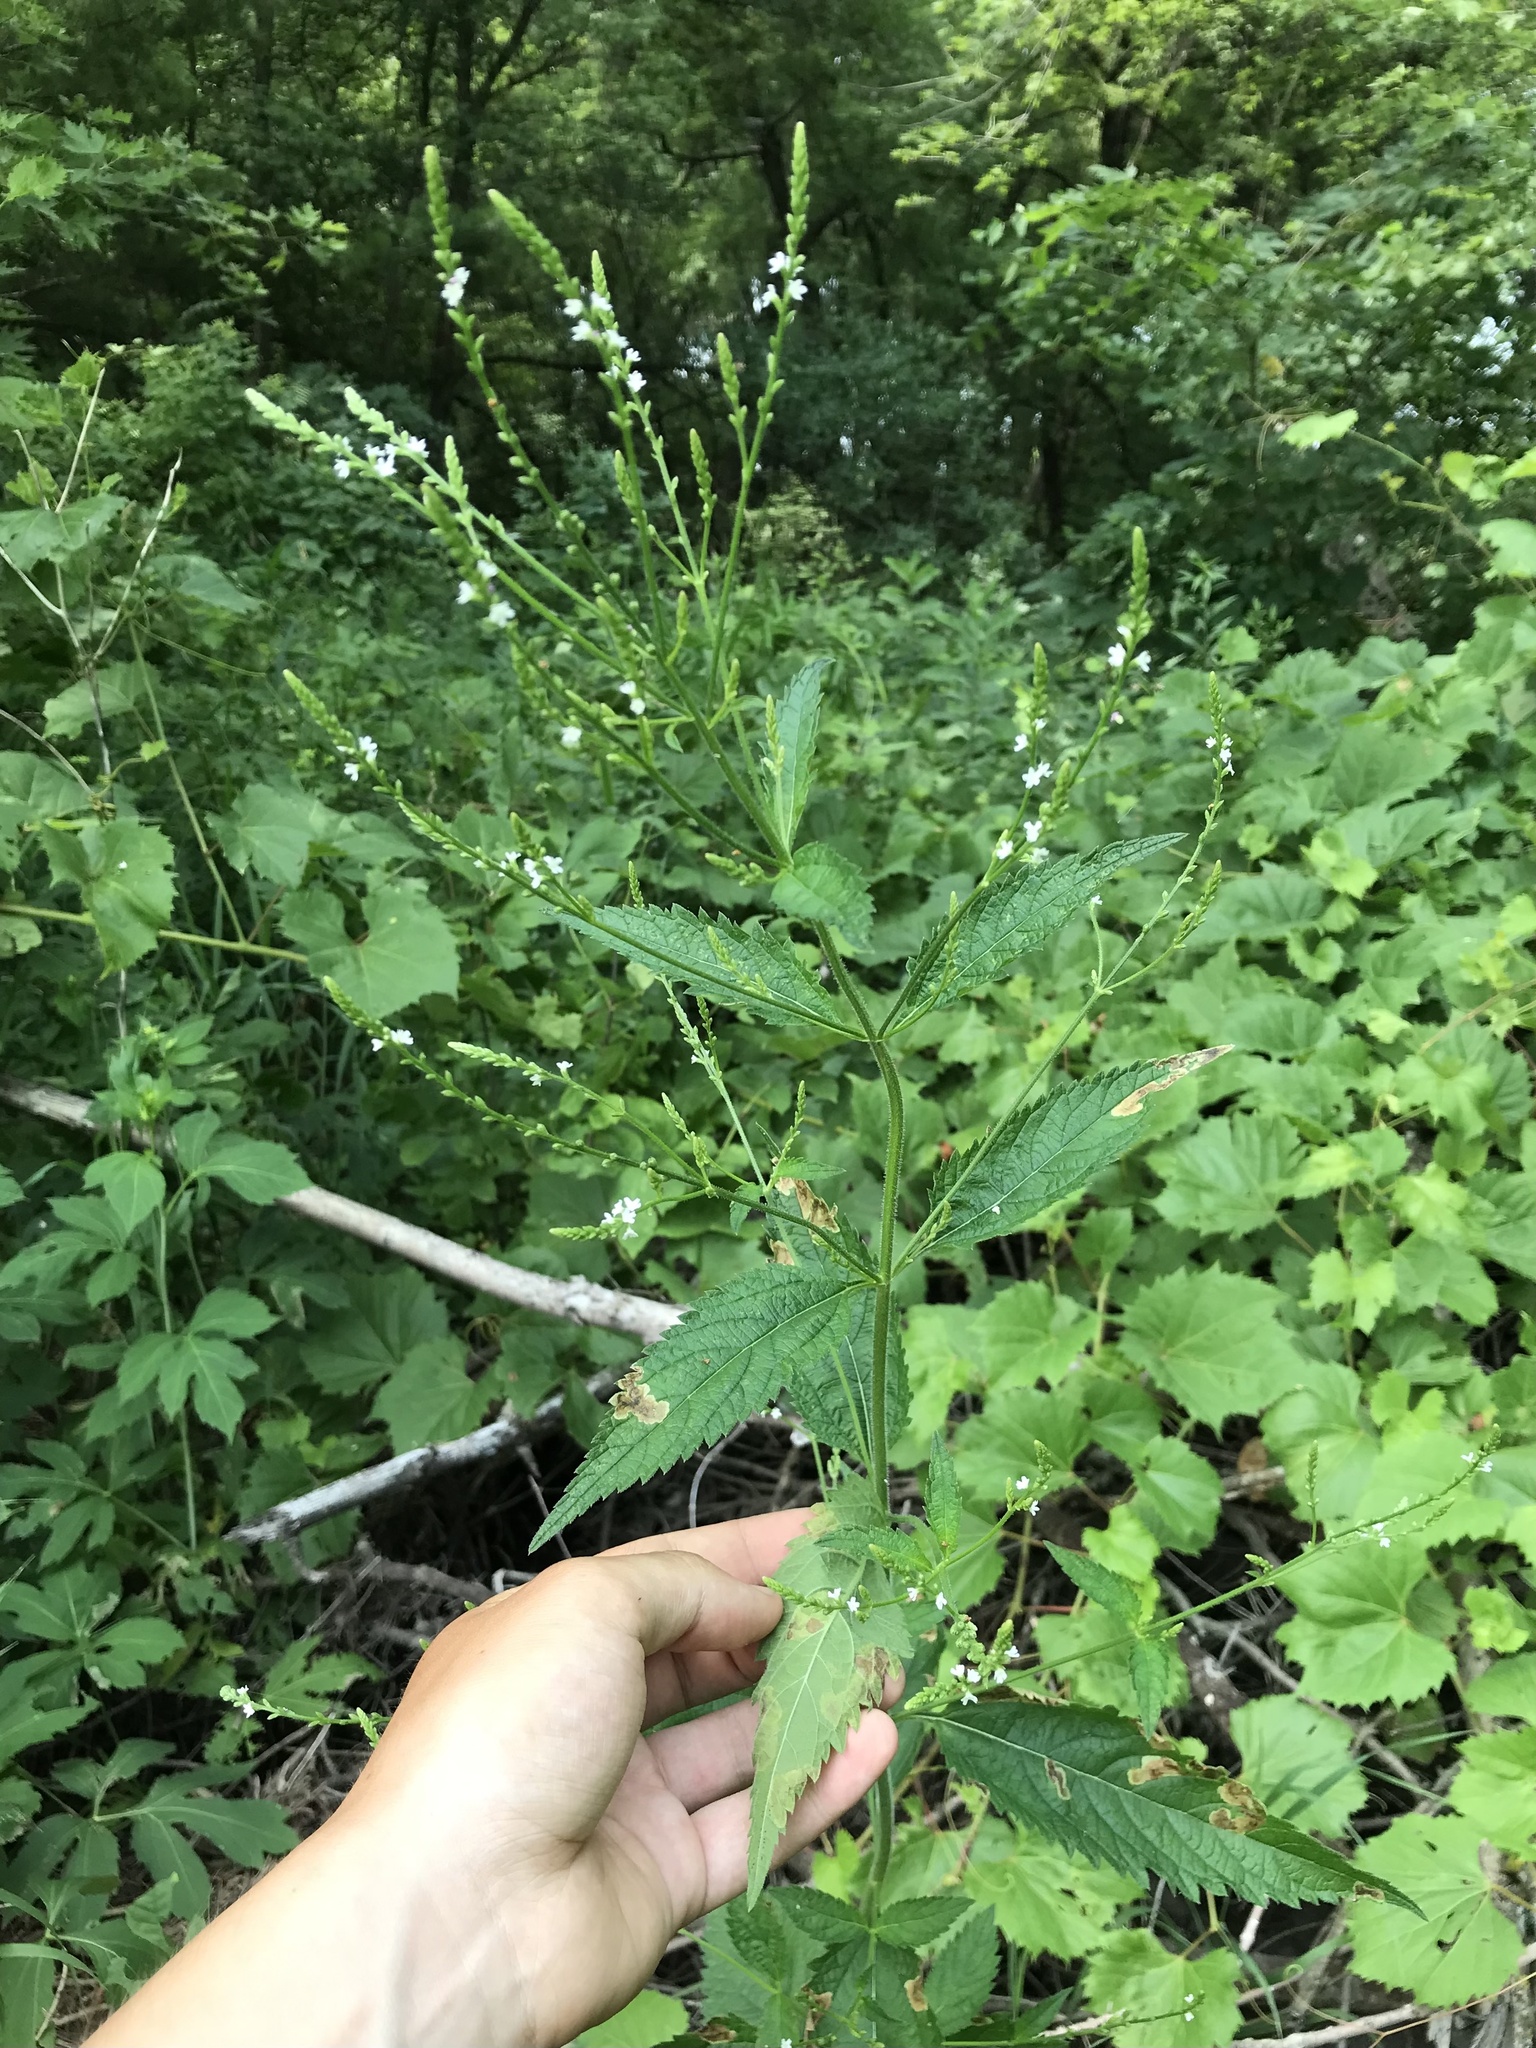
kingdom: Plantae
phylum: Tracheophyta
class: Magnoliopsida
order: Lamiales
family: Verbenaceae
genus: Verbena
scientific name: Verbena urticifolia
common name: Nettle-leaved vervain
